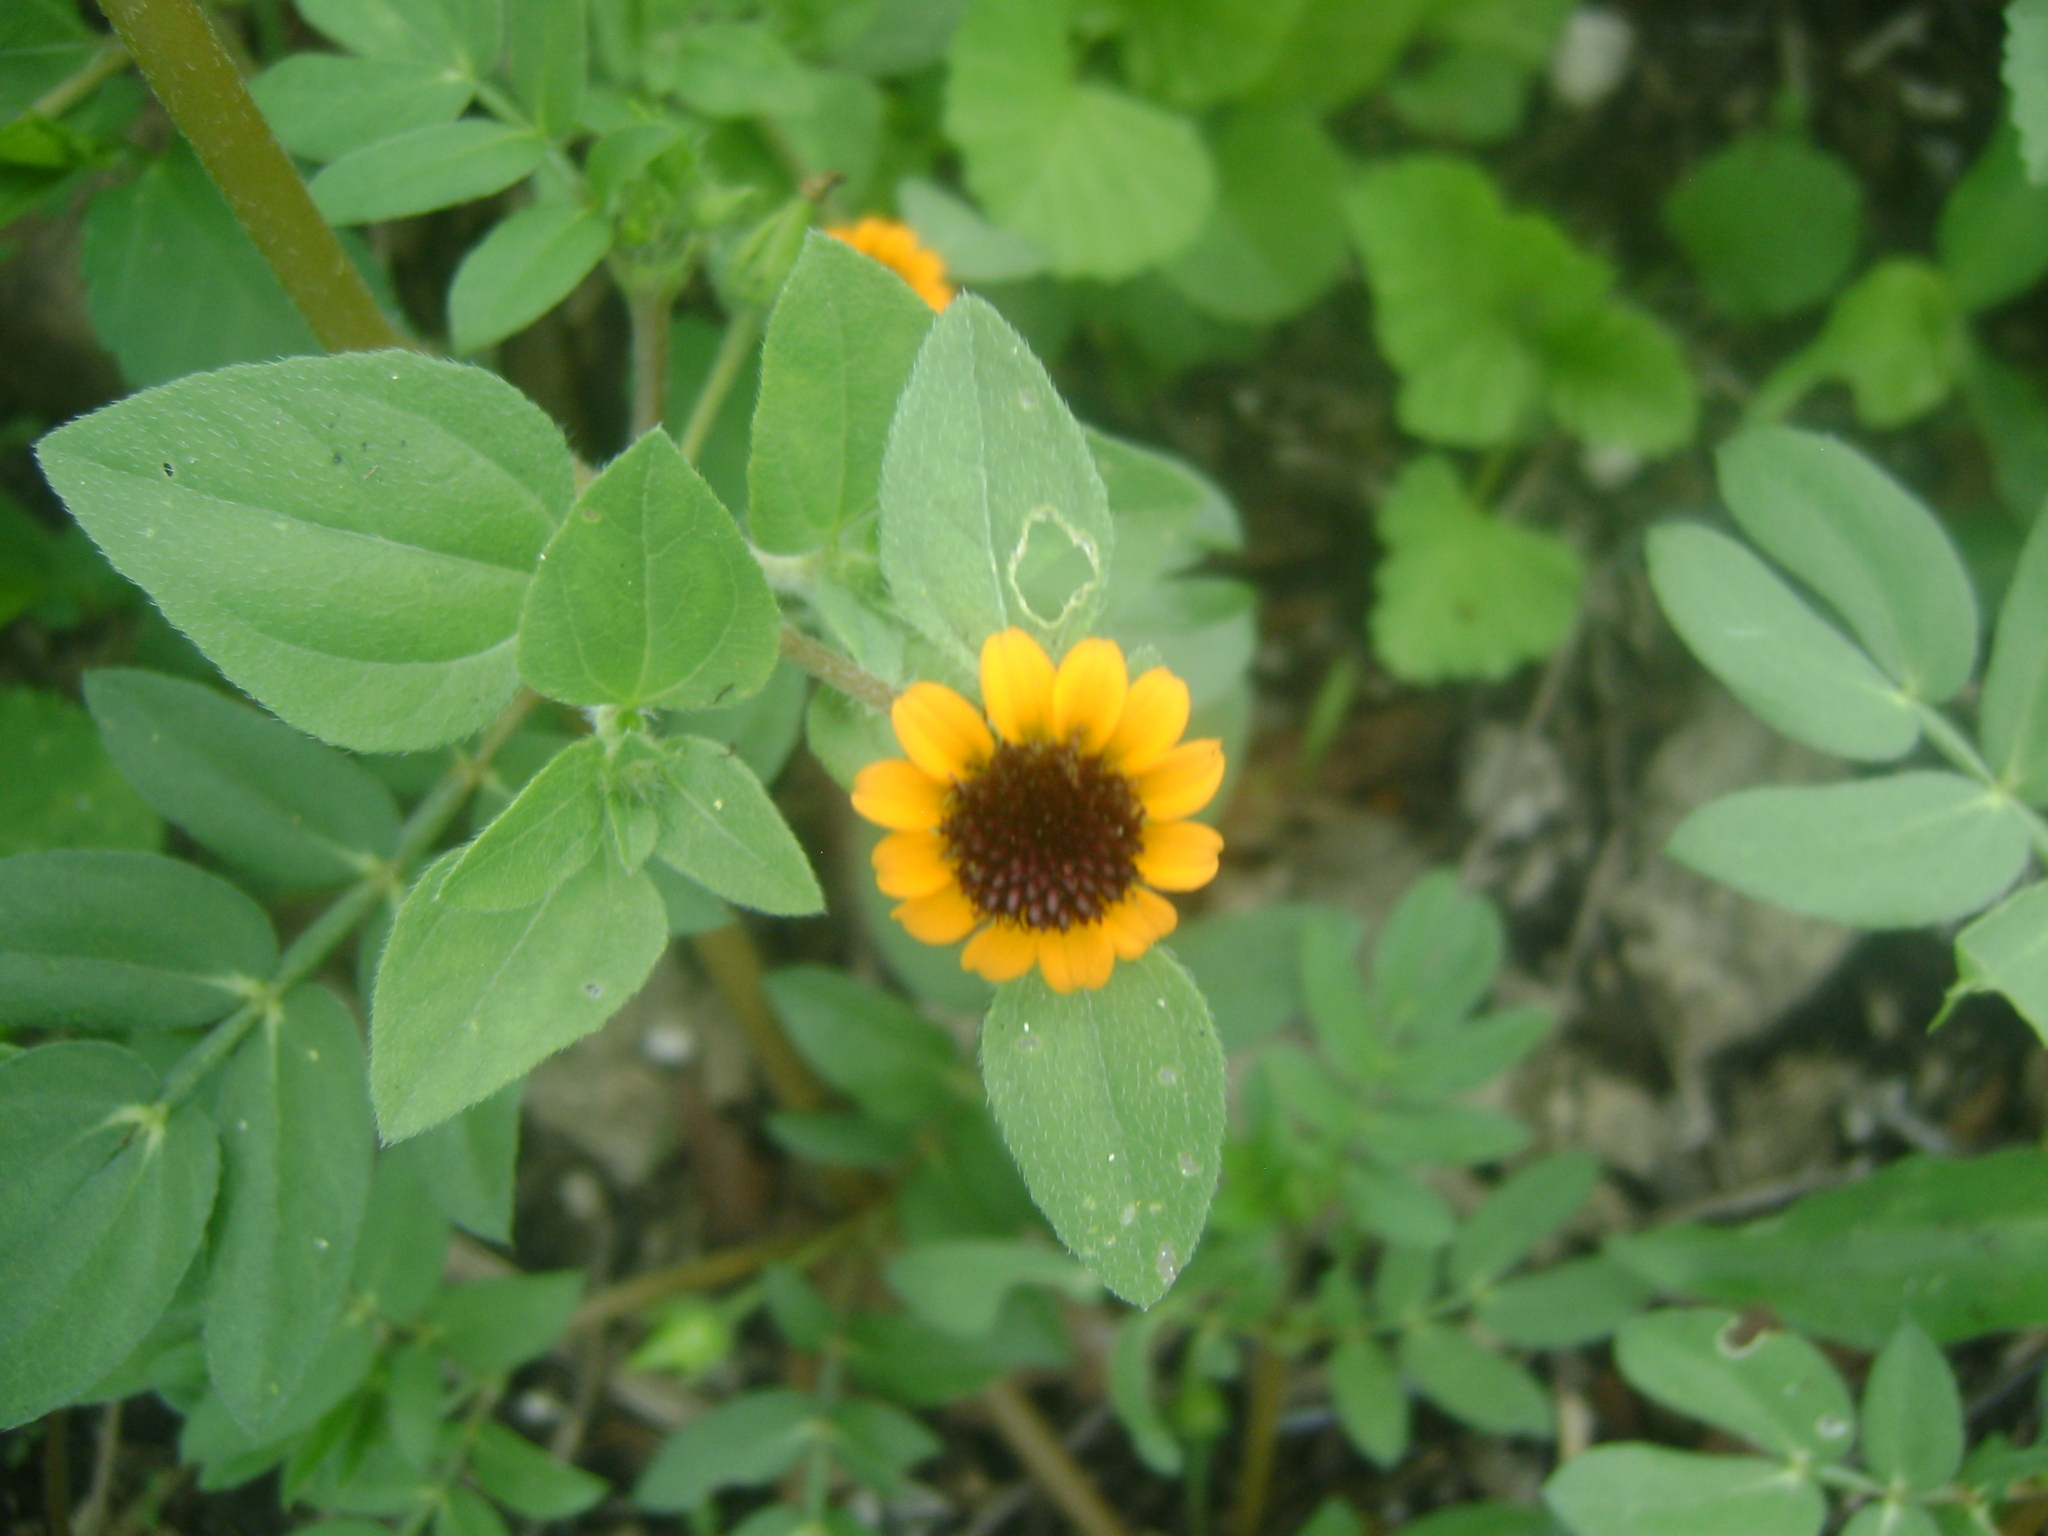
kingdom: Plantae
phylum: Tracheophyta
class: Magnoliopsida
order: Asterales
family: Asteraceae
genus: Sanvitalia
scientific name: Sanvitalia procumbens
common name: Mexican creeping zinnia
